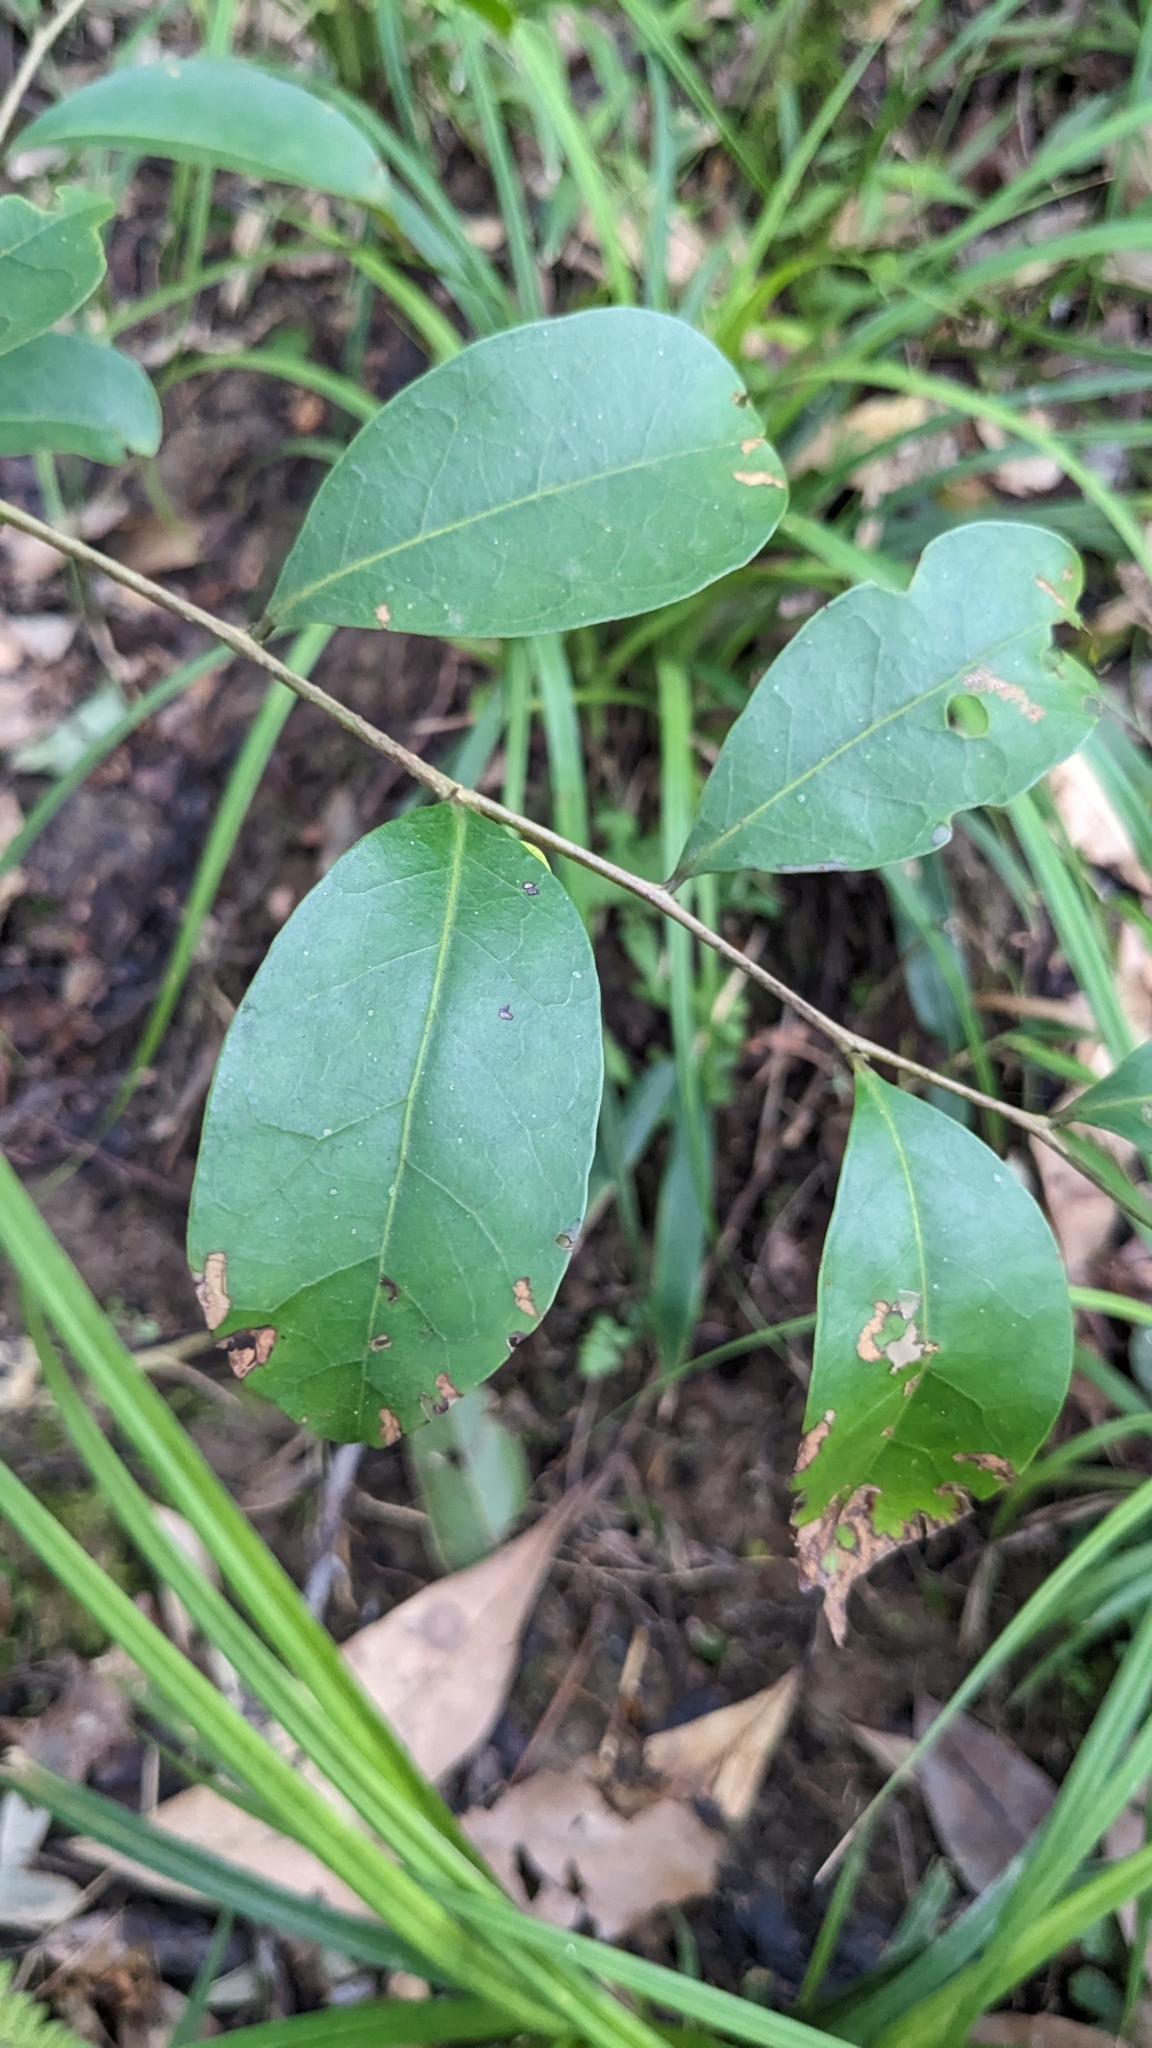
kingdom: Plantae
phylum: Tracheophyta
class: Magnoliopsida
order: Malpighiales
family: Phyllanthaceae
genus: Glochidion
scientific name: Glochidion rubrum
